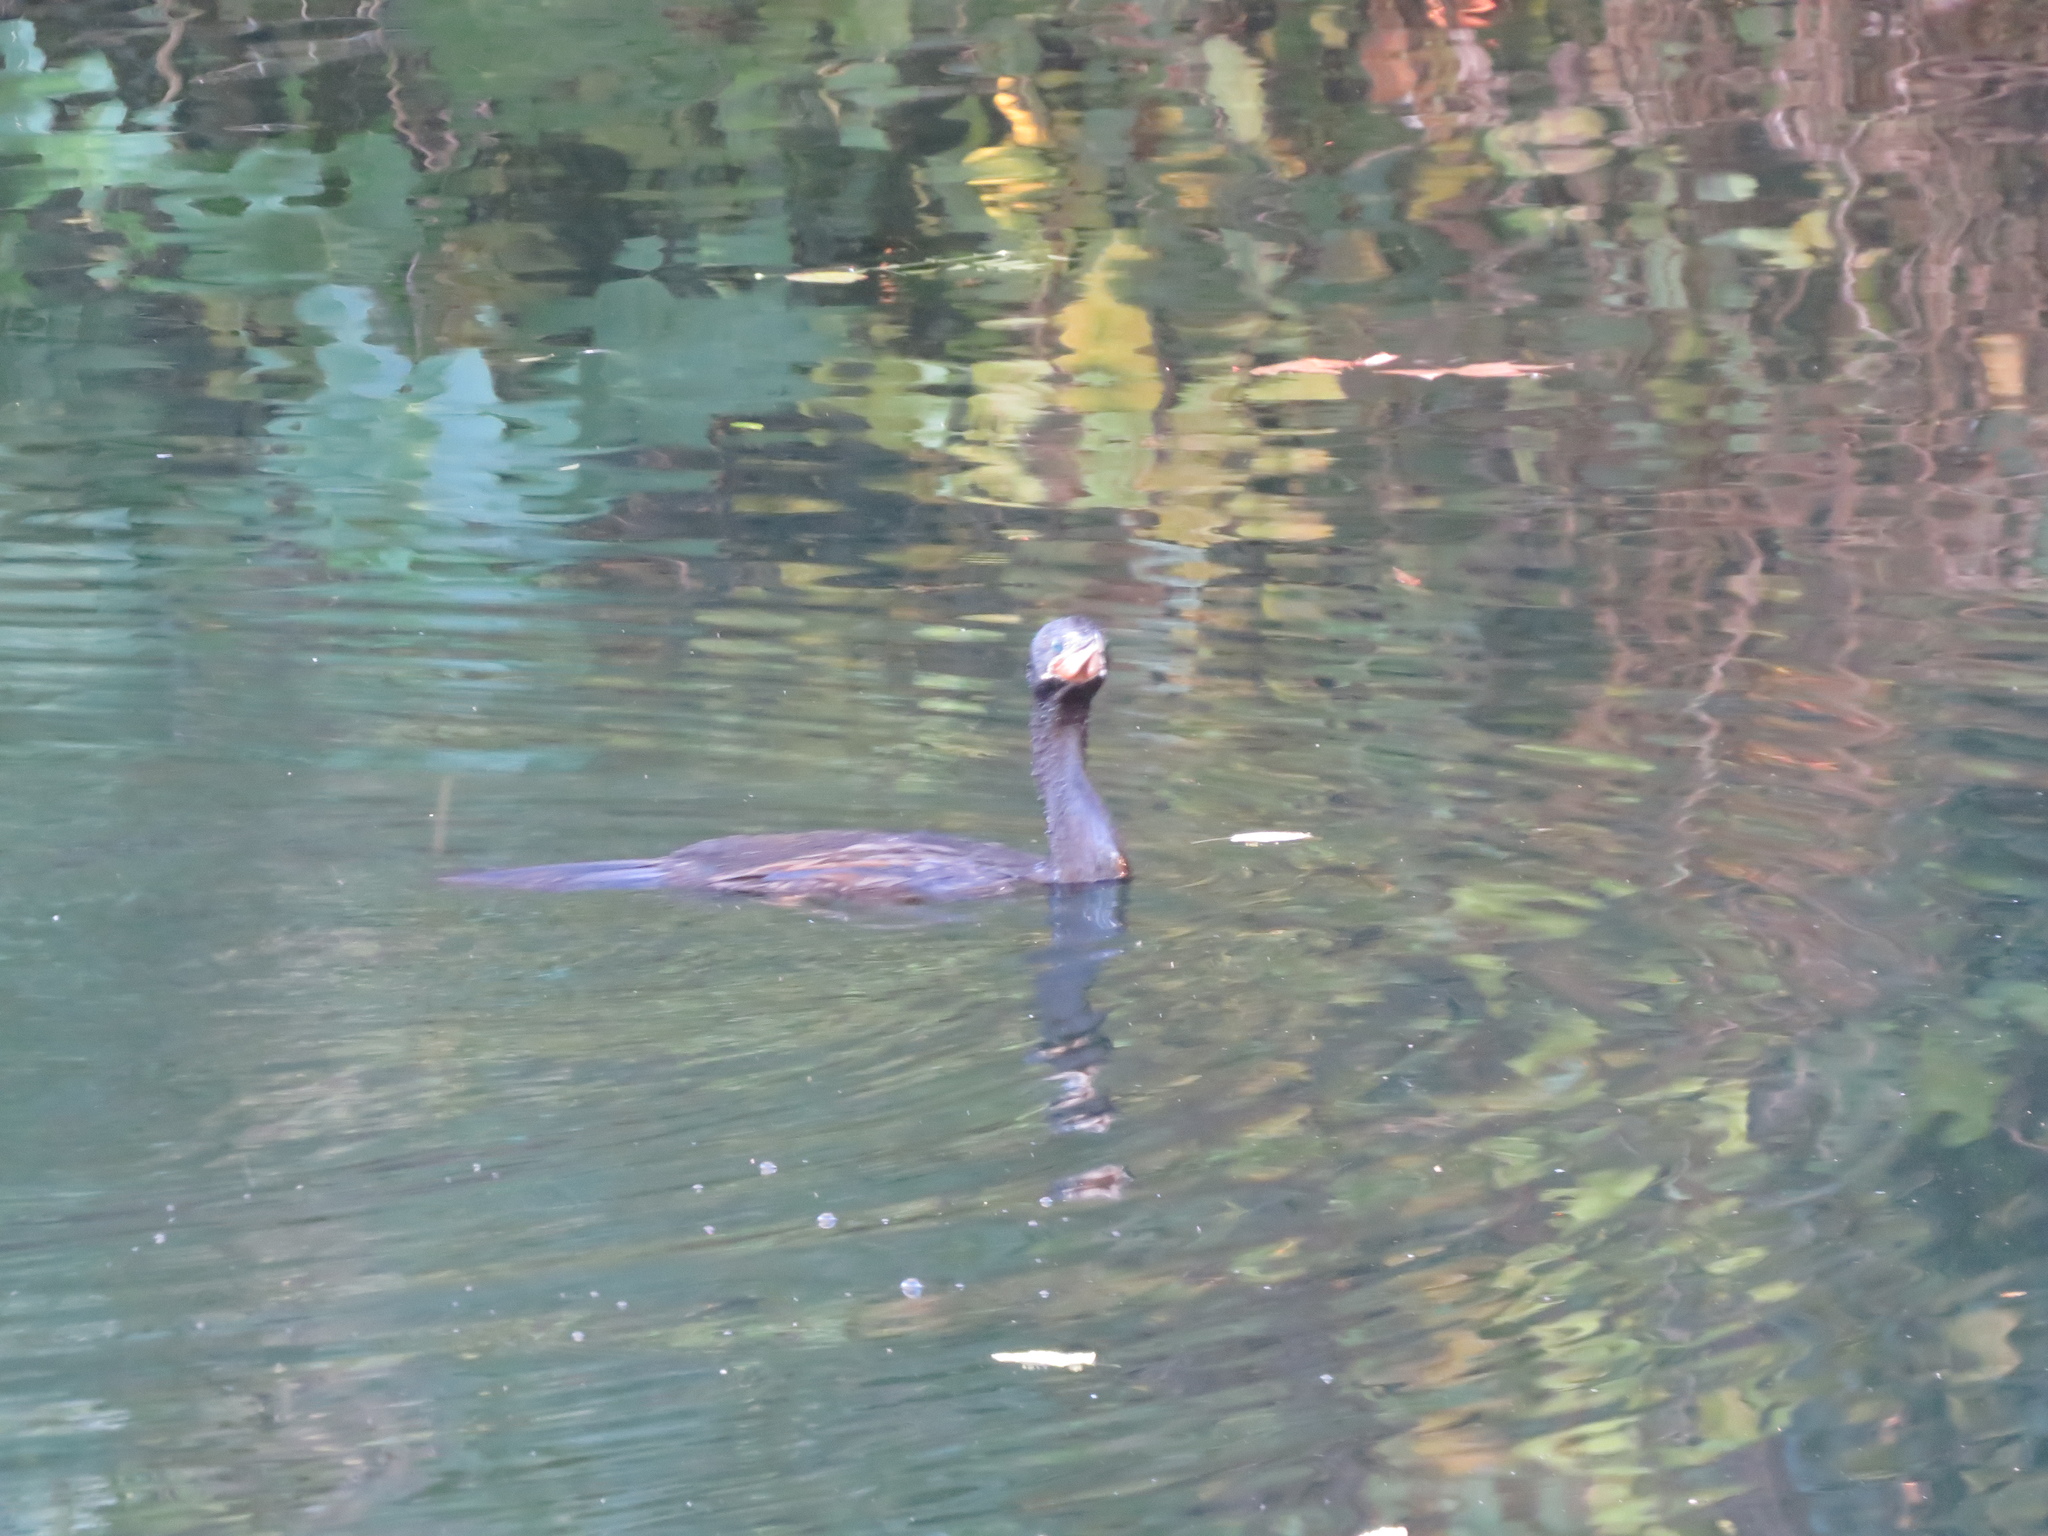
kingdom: Animalia
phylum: Chordata
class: Aves
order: Suliformes
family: Phalacrocoracidae
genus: Phalacrocorax
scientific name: Phalacrocorax brasilianus
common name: Neotropic cormorant
